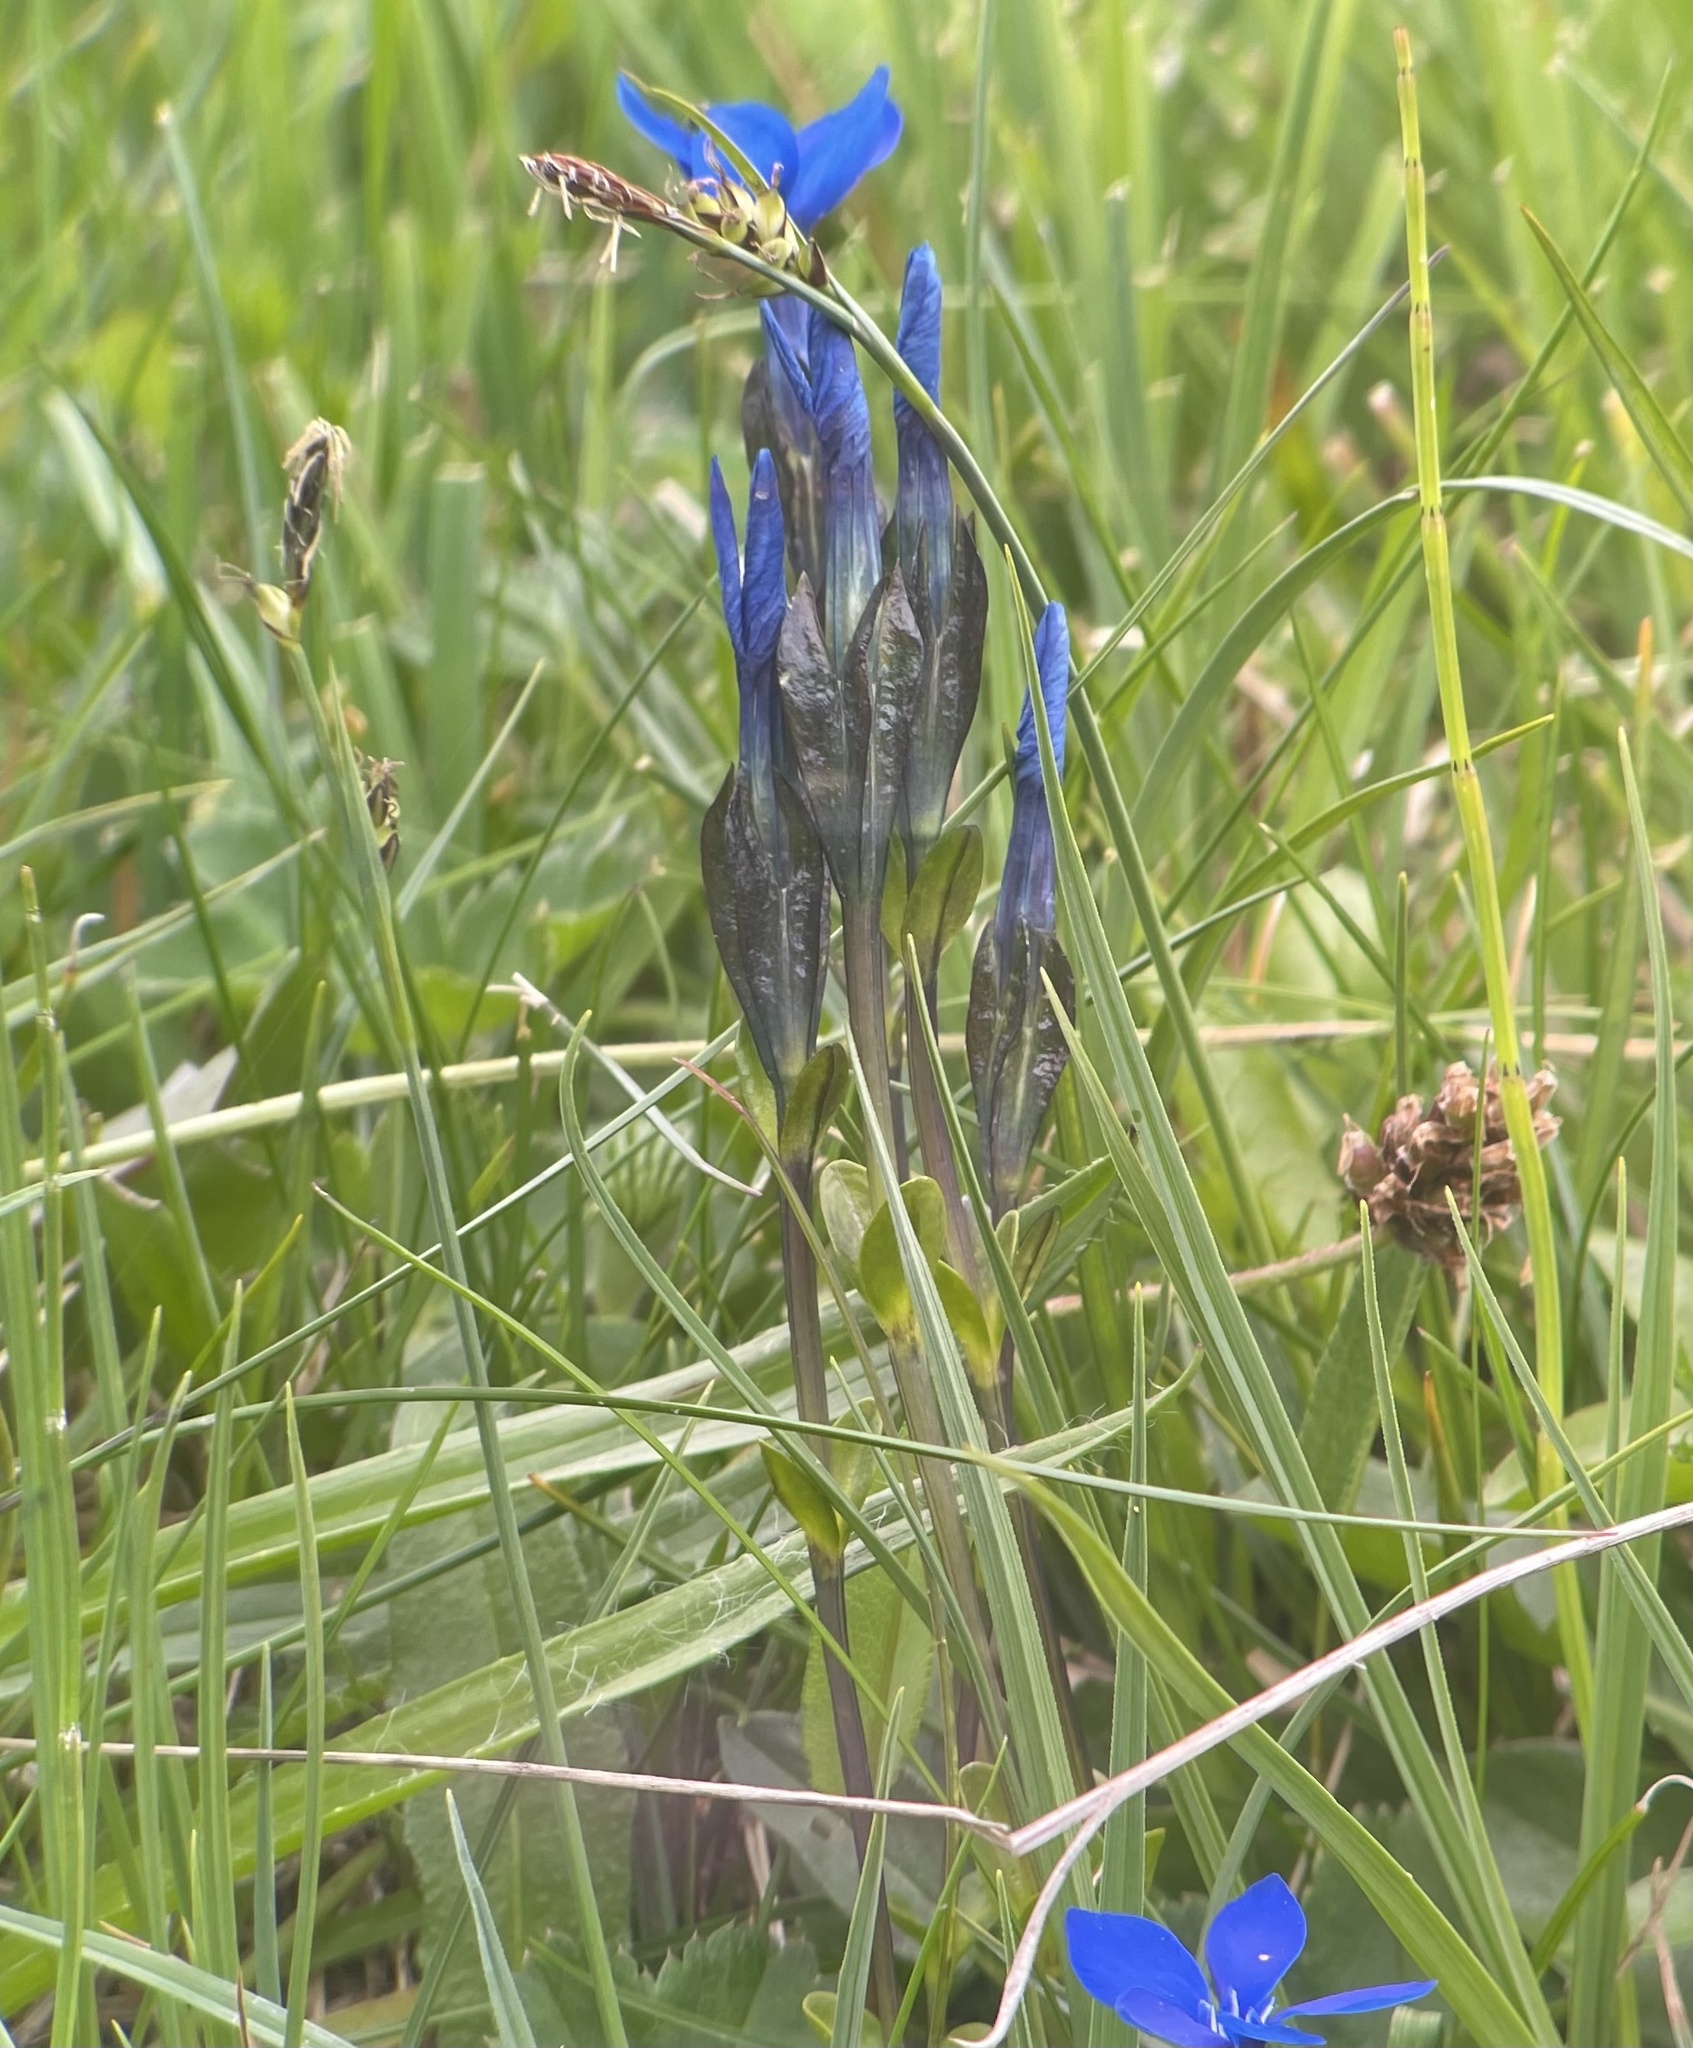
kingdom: Plantae
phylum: Tracheophyta
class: Magnoliopsida
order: Gentianales
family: Gentianaceae
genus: Gentiana
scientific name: Gentiana bavarica
